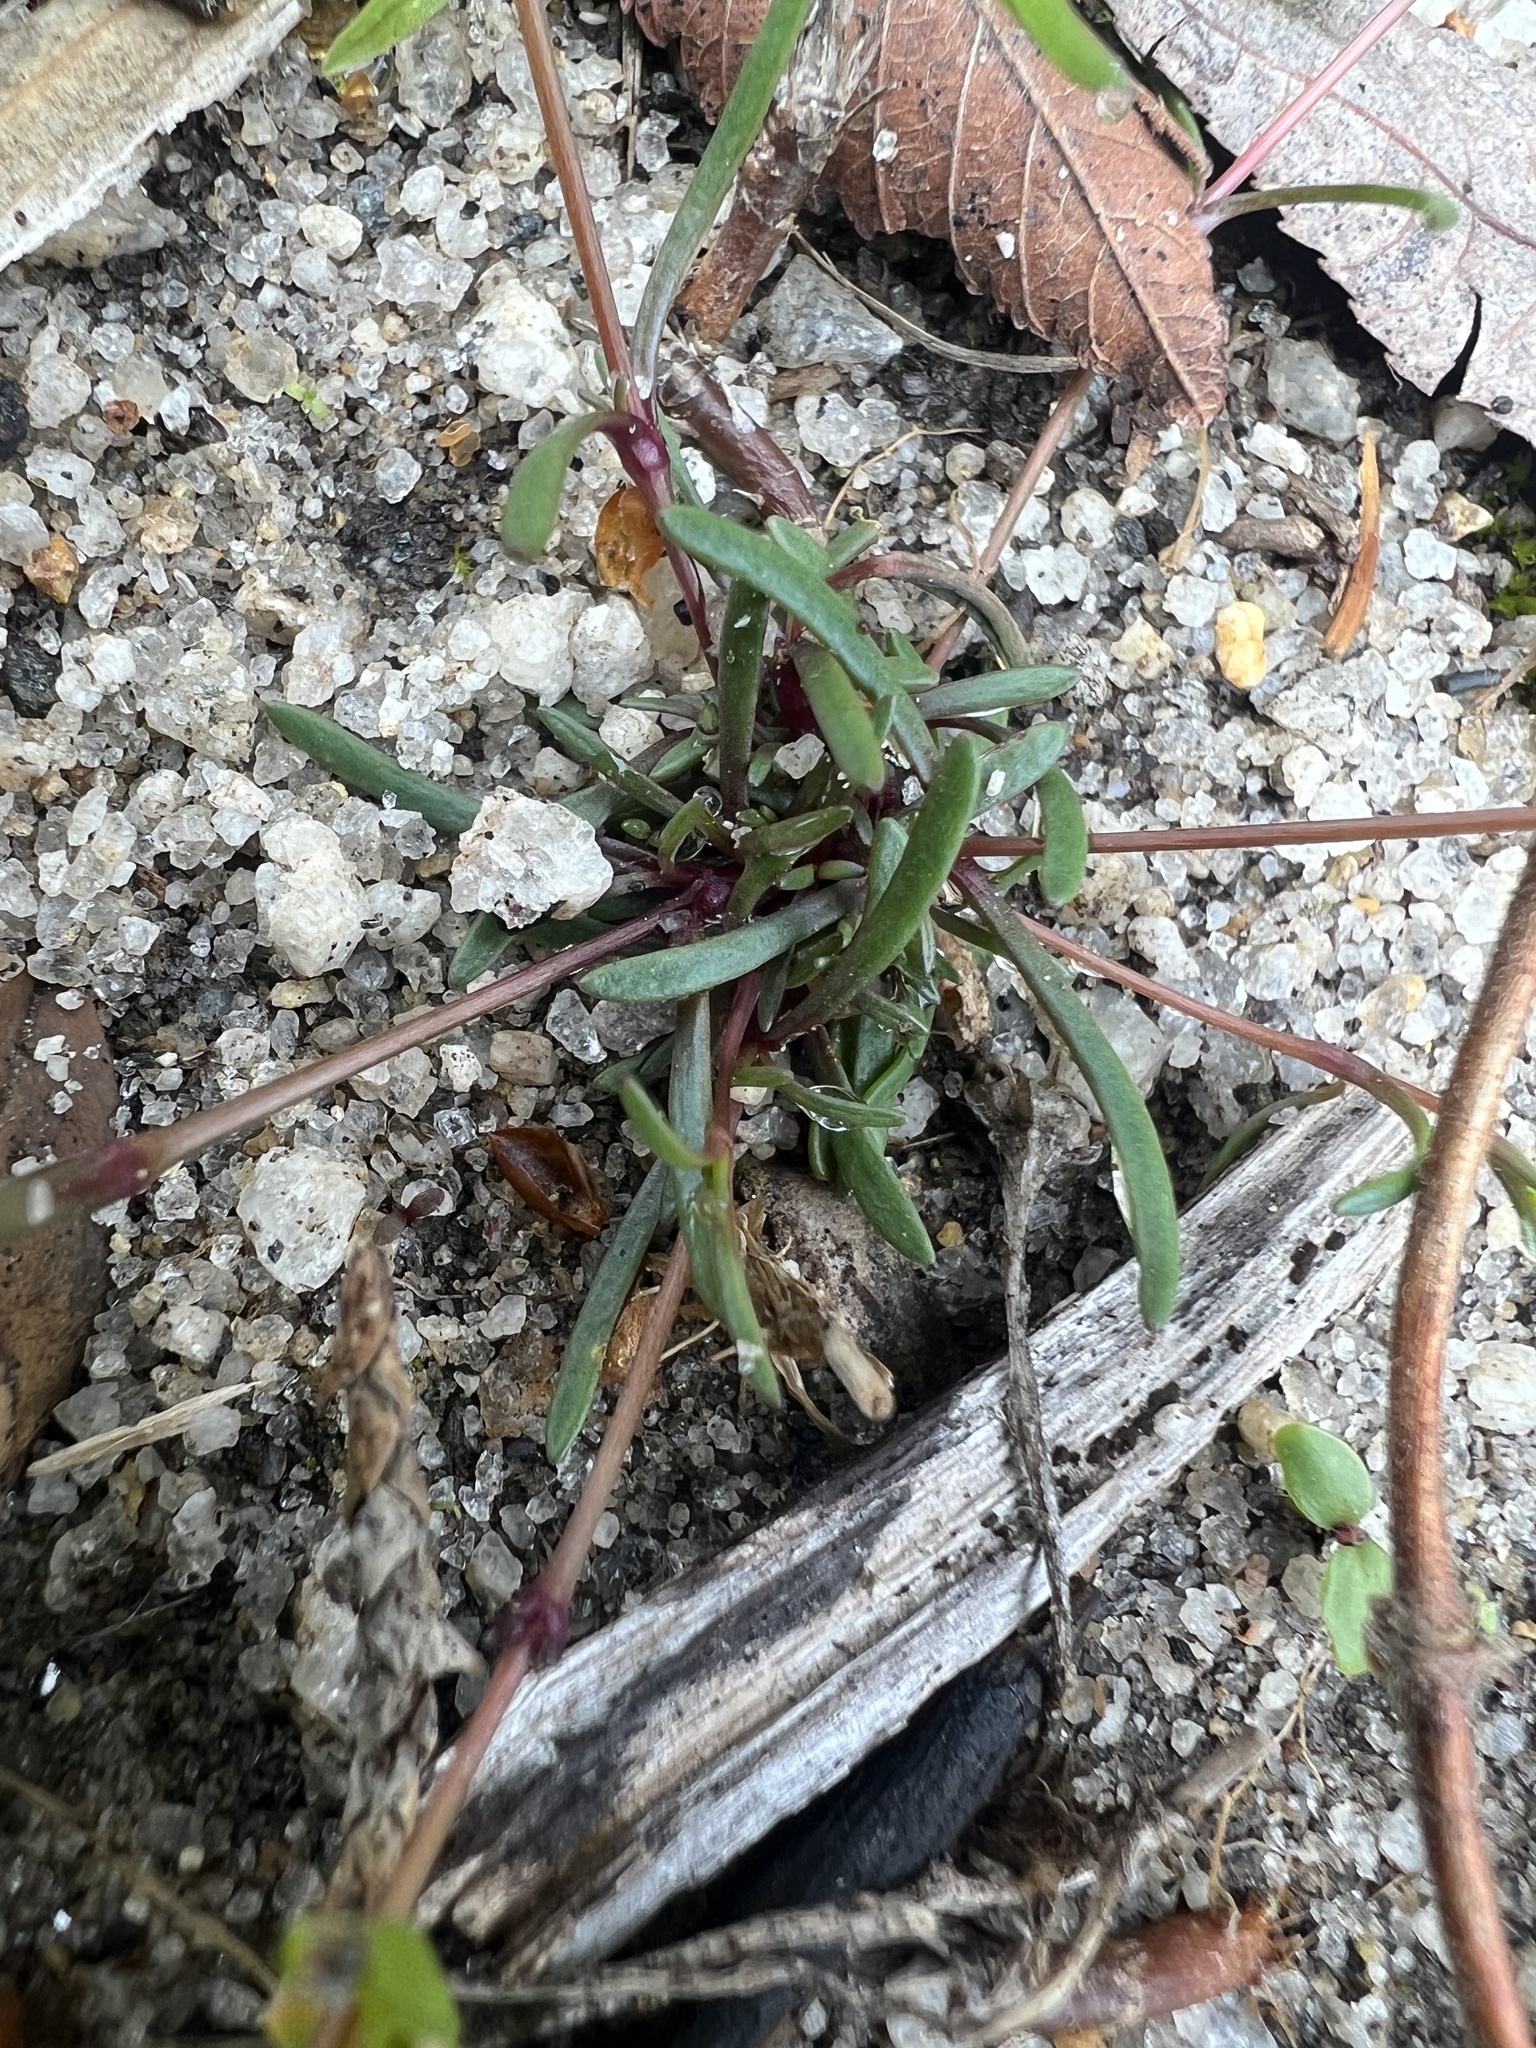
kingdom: Plantae
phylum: Tracheophyta
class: Magnoliopsida
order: Caryophyllales
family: Caryophyllaceae
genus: Geocarpon
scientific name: Geocarpon glabrum
